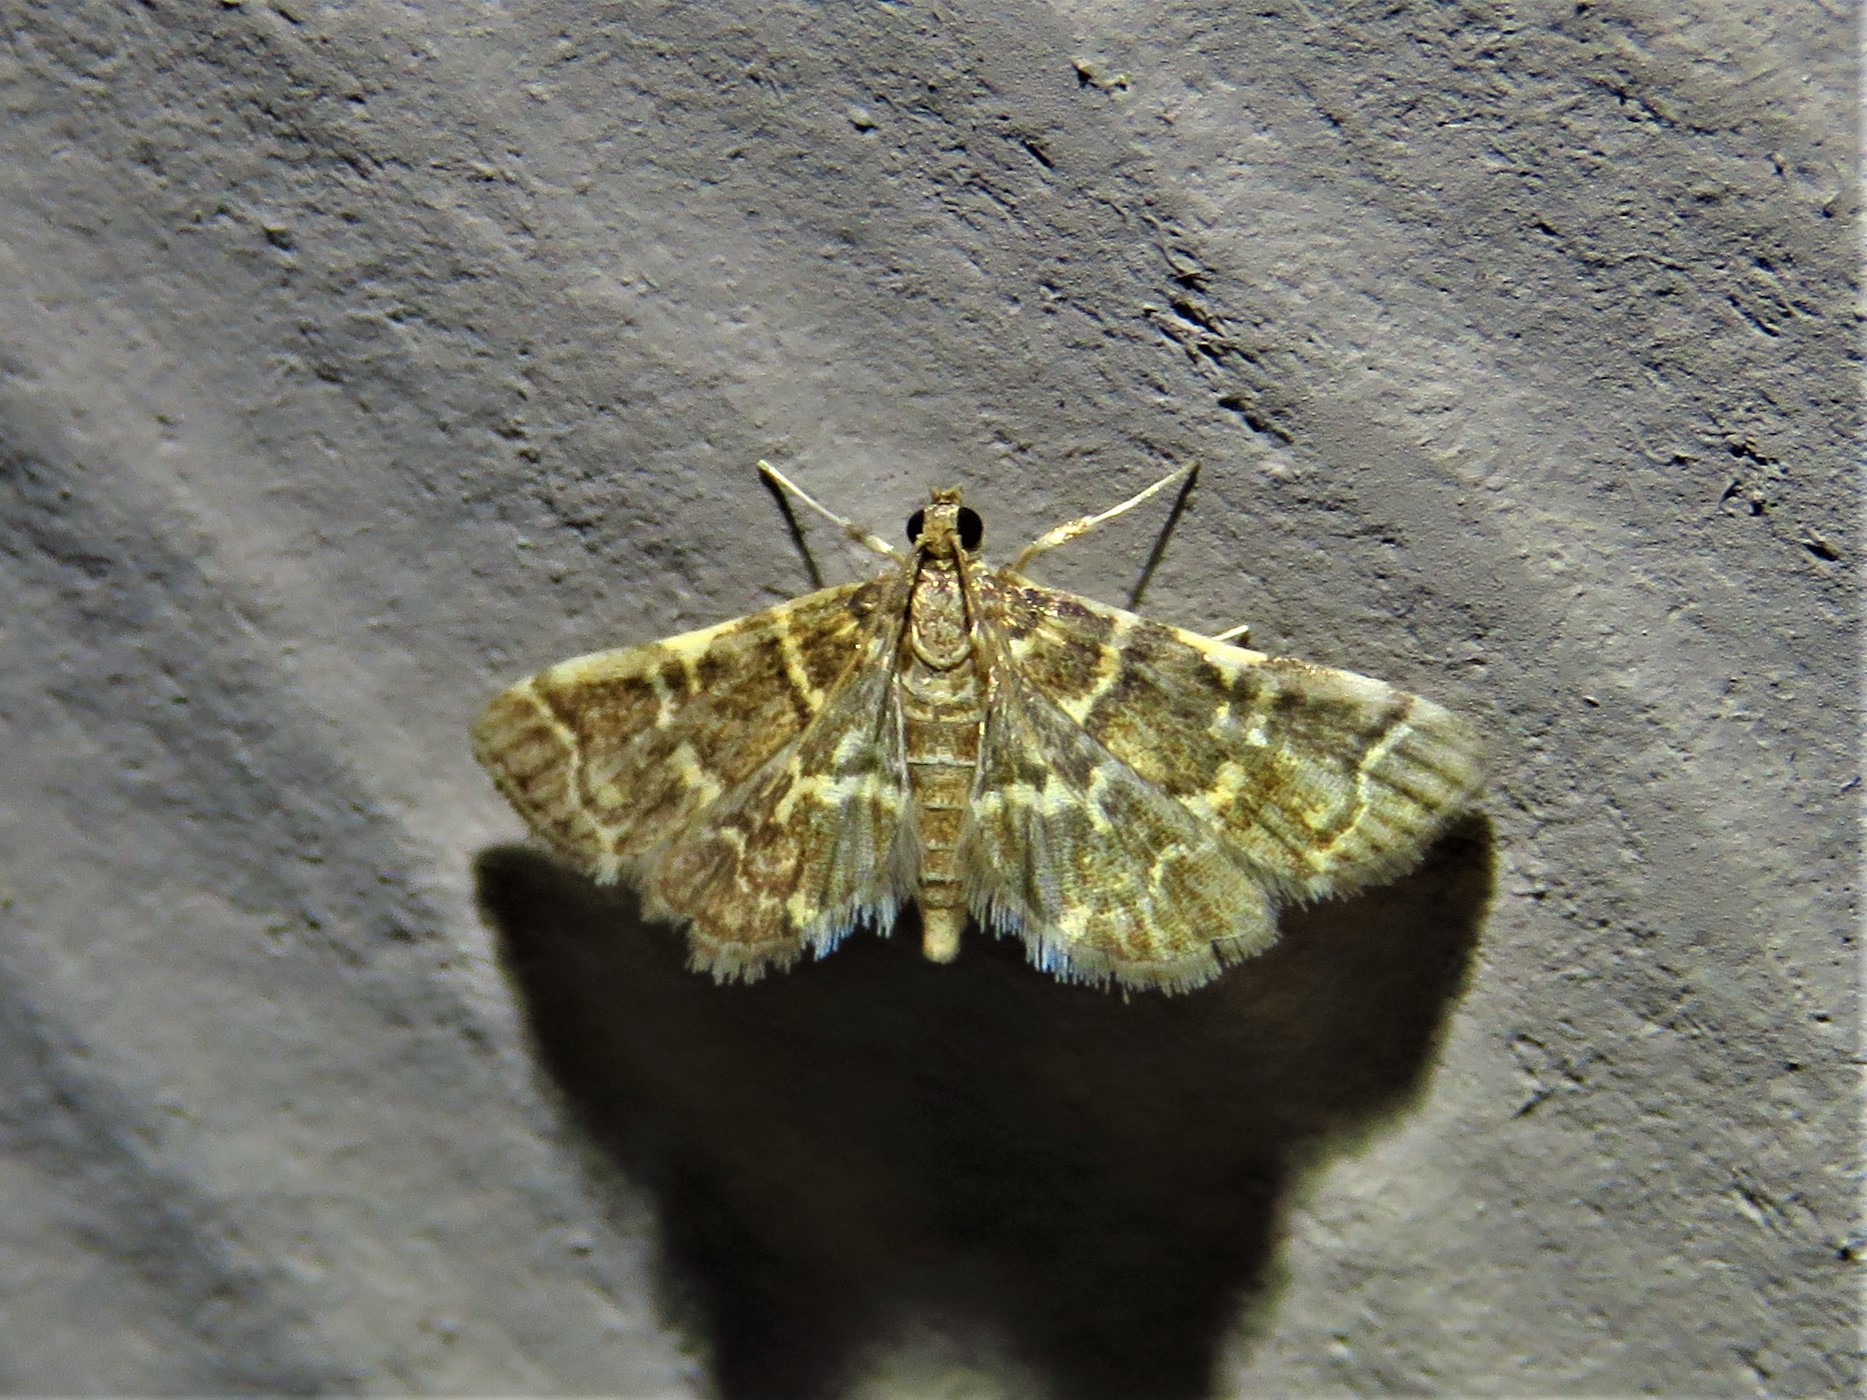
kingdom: Animalia
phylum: Arthropoda
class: Insecta
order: Lepidoptera
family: Crambidae
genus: Anageshna
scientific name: Anageshna primordialis
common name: Yellow-spotted webworm moth
